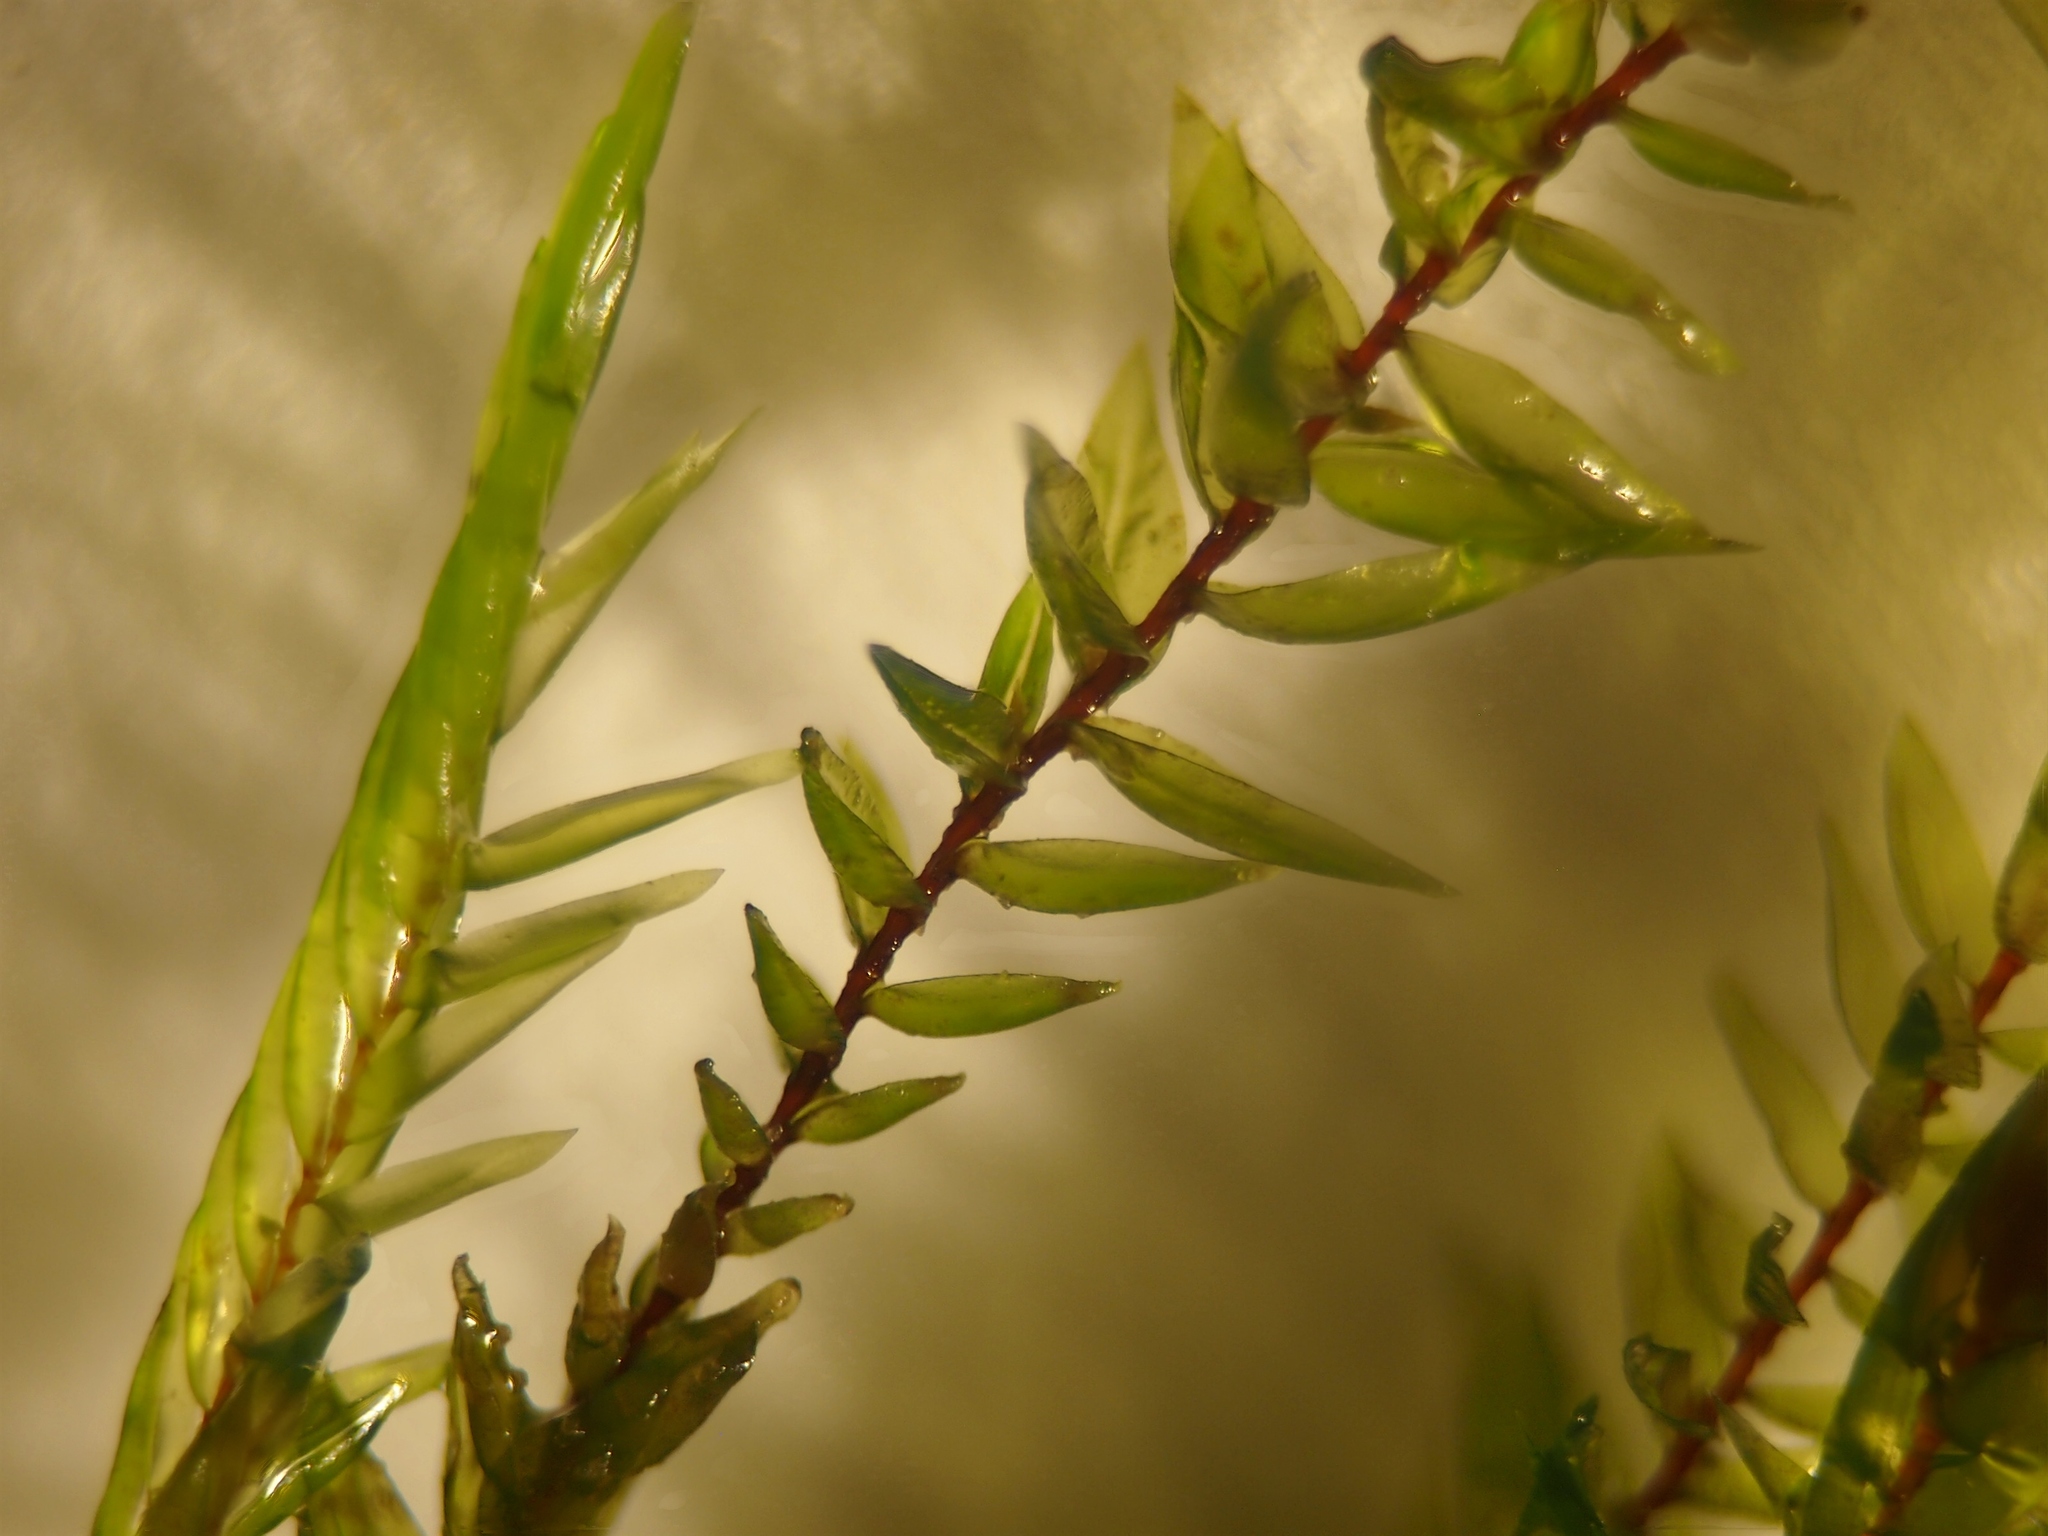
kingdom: Plantae
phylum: Bryophyta
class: Bryopsida
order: Hypnales
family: Fontinalaceae
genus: Fontinalis
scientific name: Fontinalis antipyretica
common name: Greater water-moss
